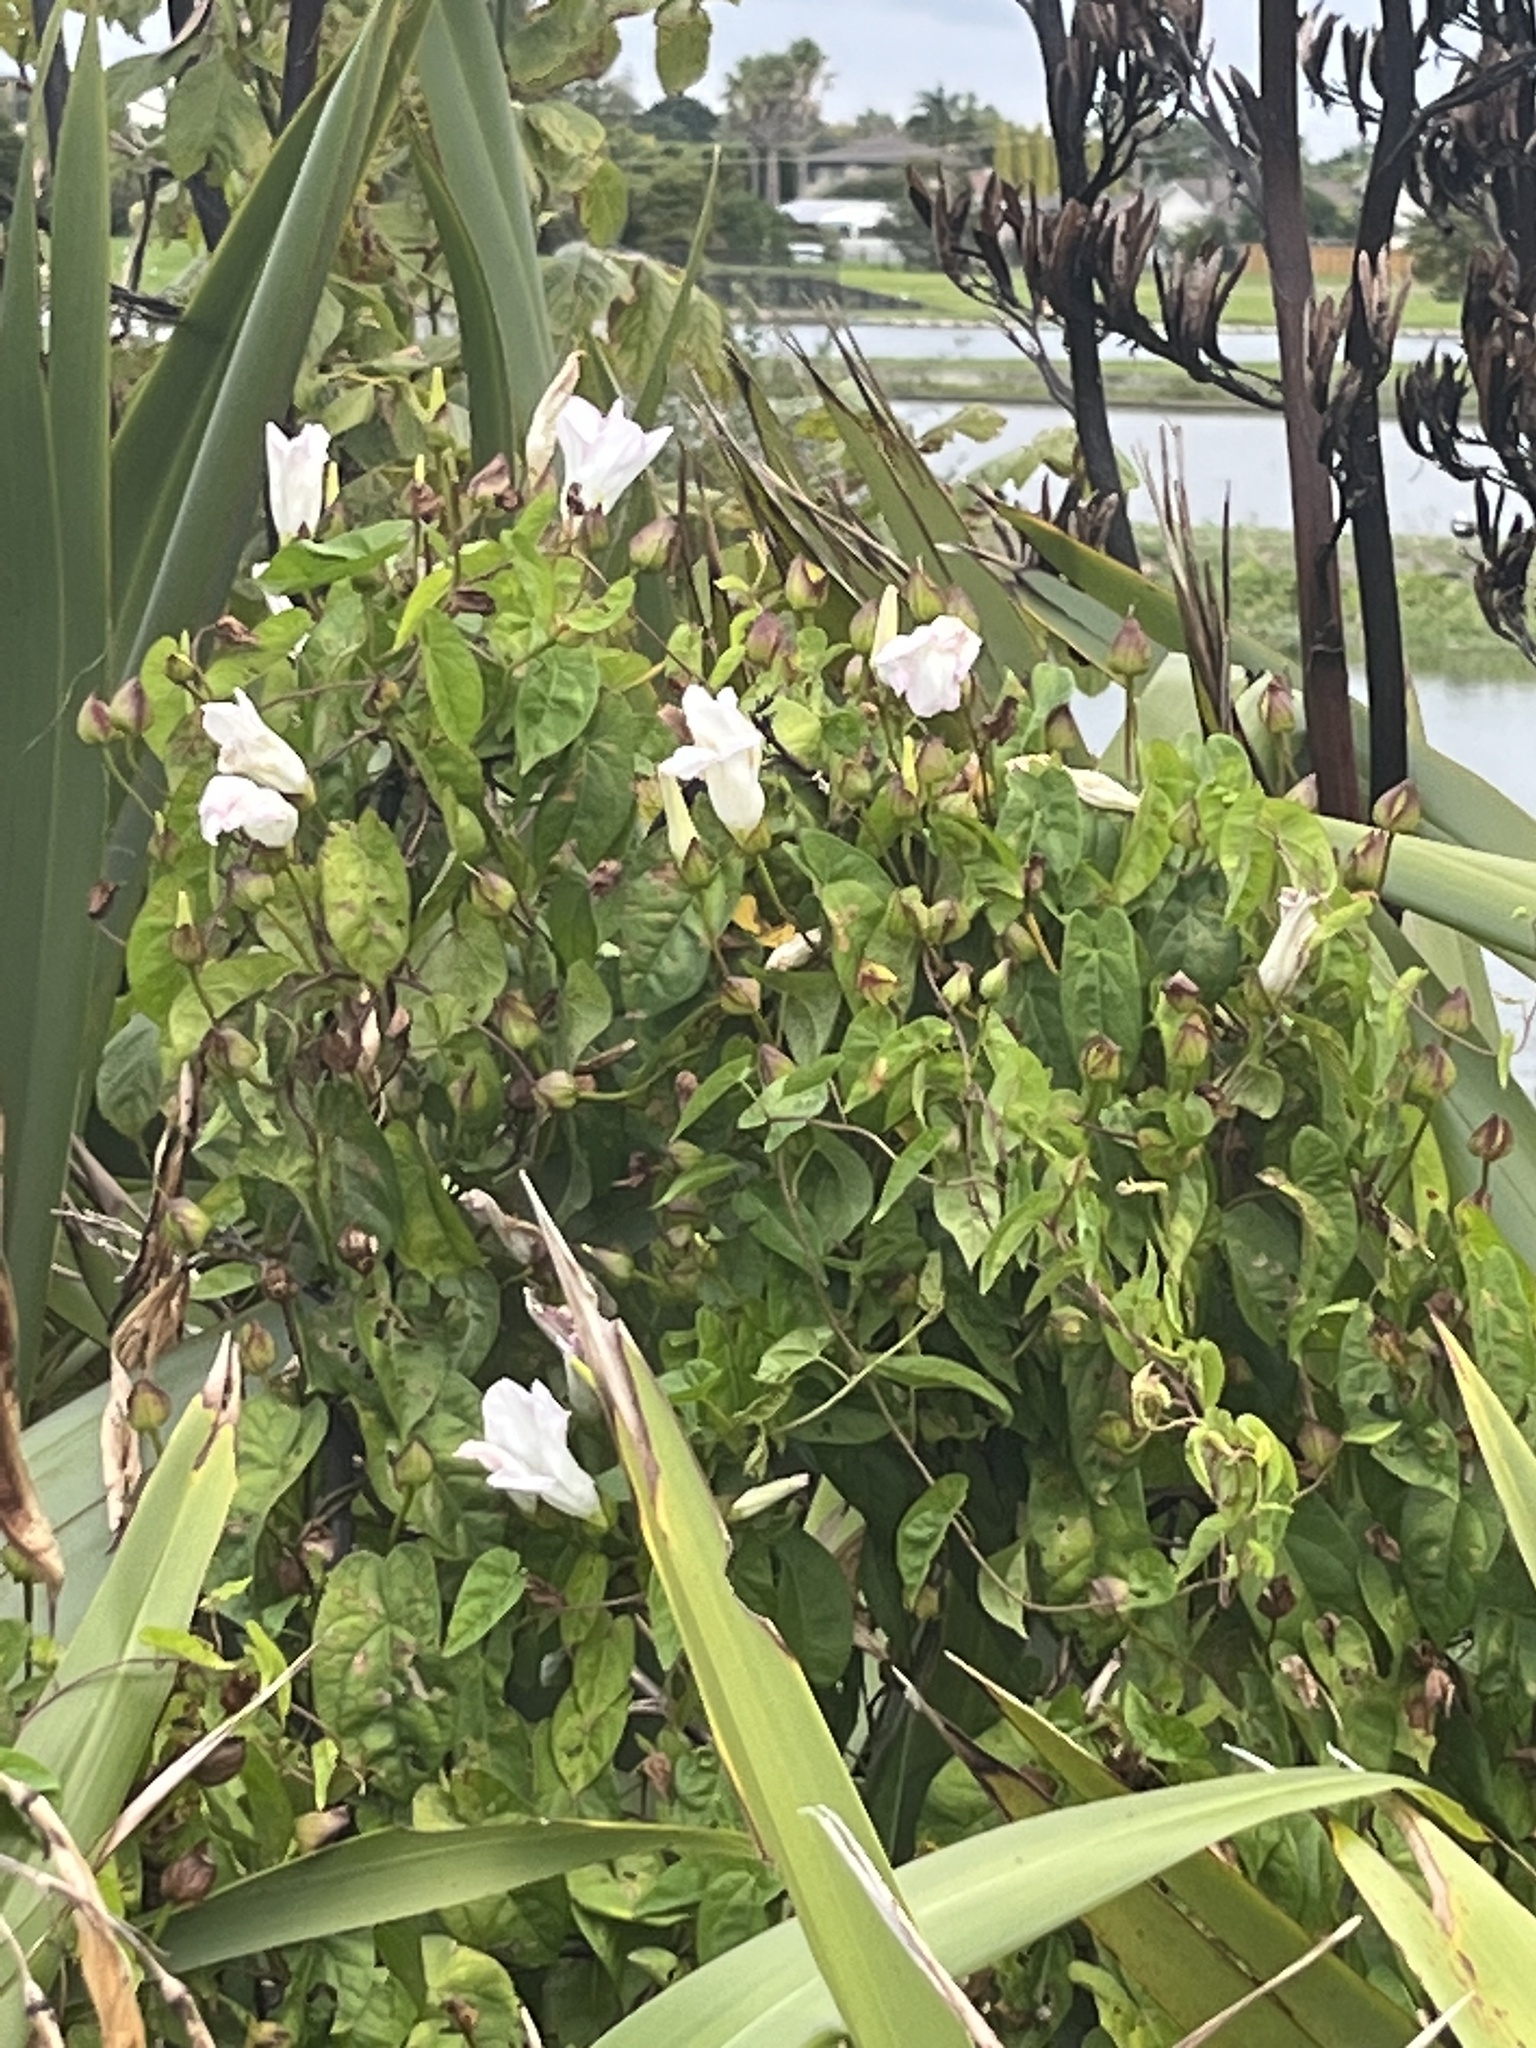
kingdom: Plantae
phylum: Tracheophyta
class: Magnoliopsida
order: Solanales
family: Convolvulaceae
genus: Calystegia
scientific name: Calystegia sepium
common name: Hedge bindweed
